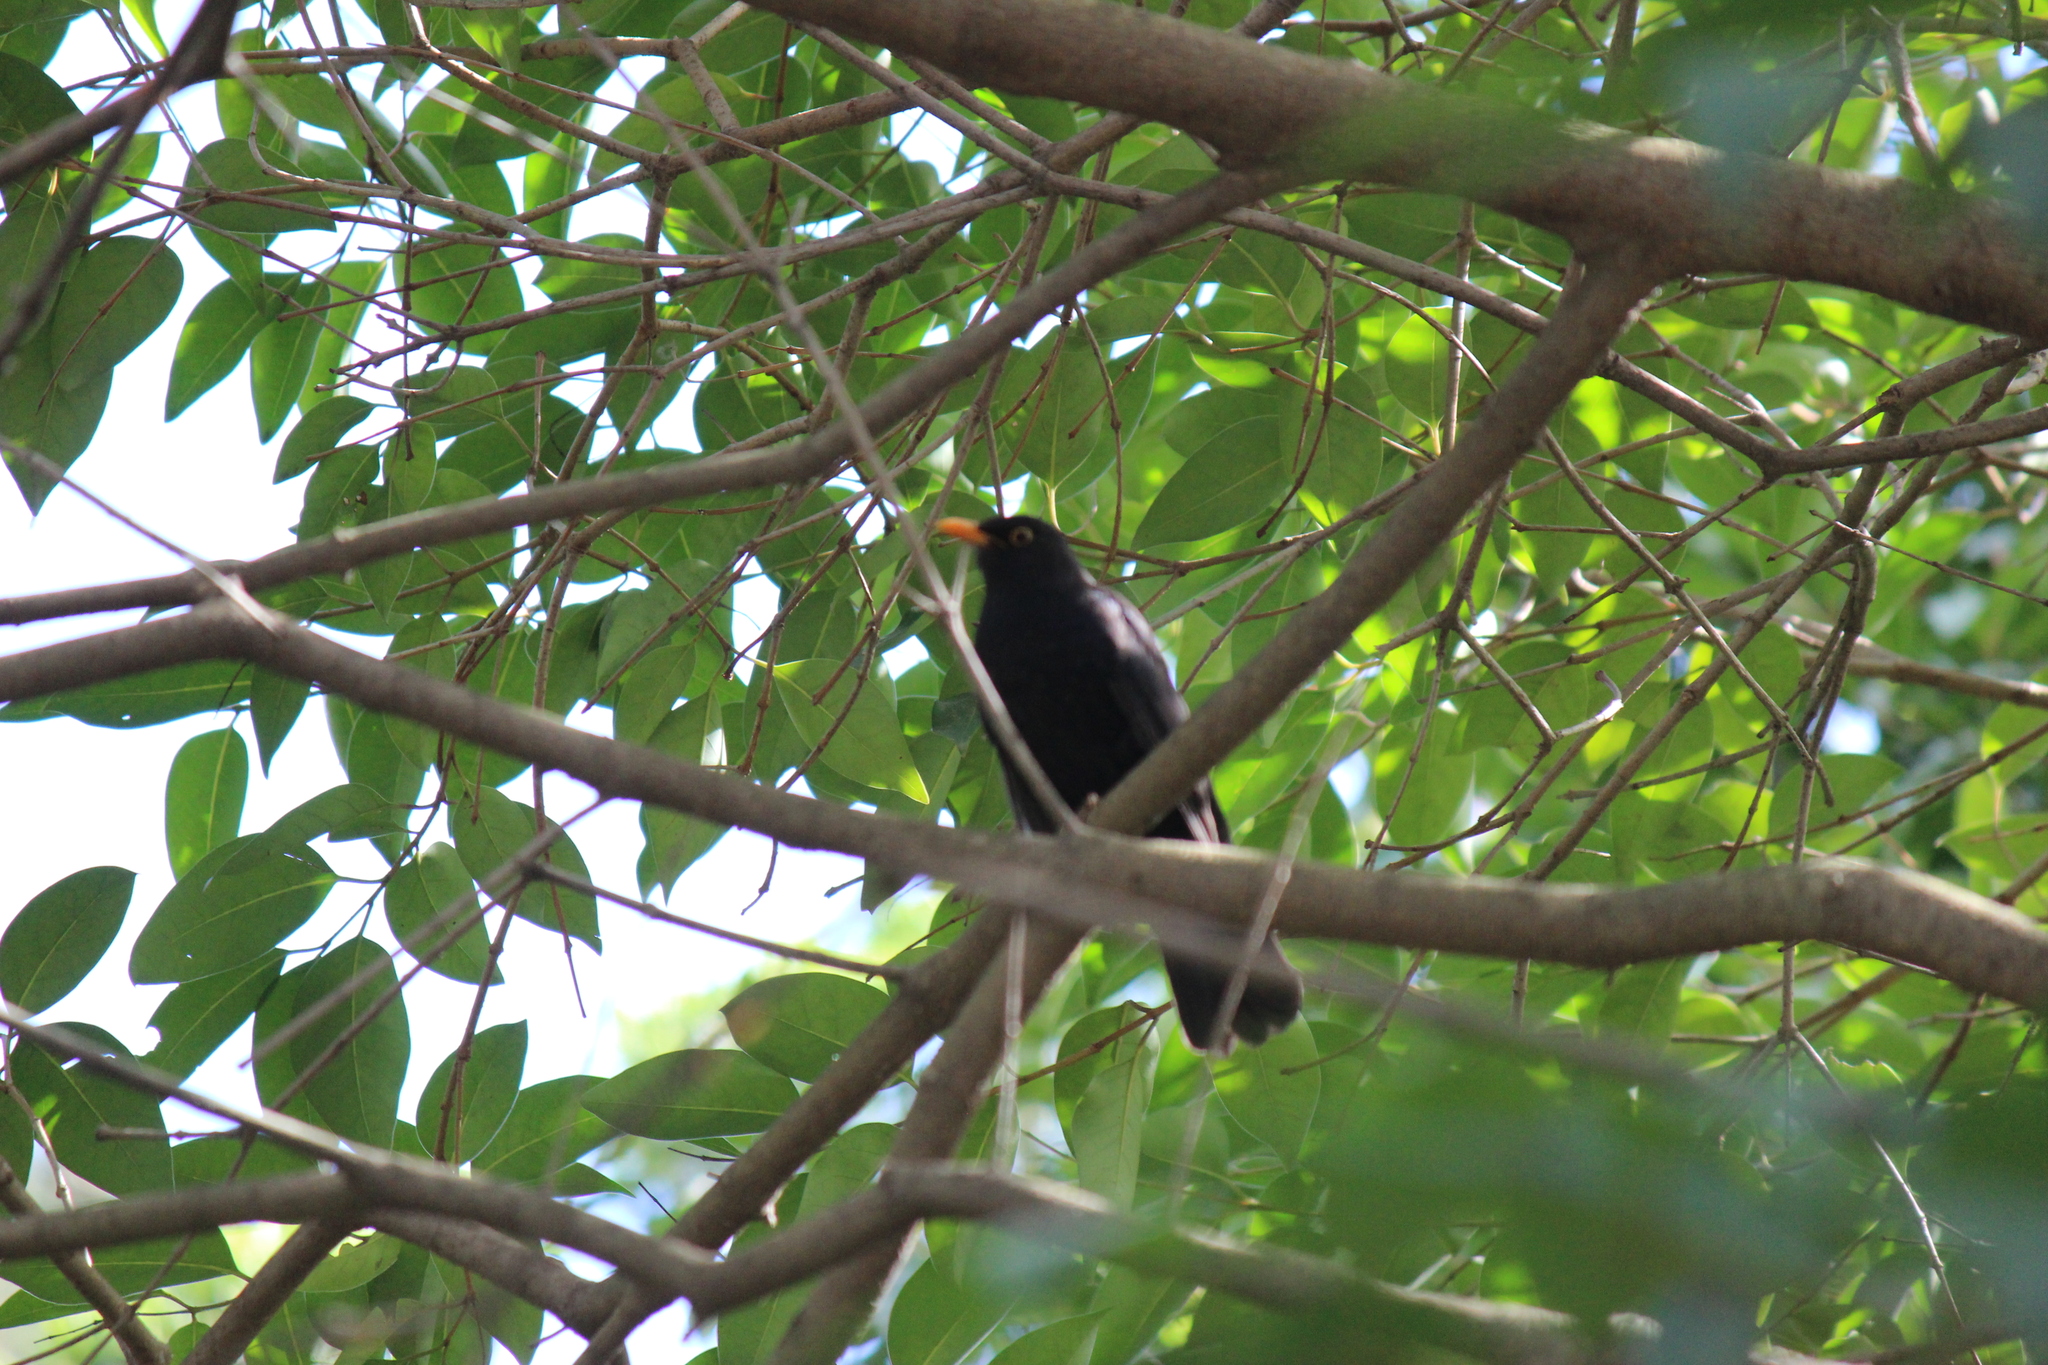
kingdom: Animalia
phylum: Chordata
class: Aves
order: Passeriformes
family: Turdidae
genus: Turdus
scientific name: Turdus merula
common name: Common blackbird
